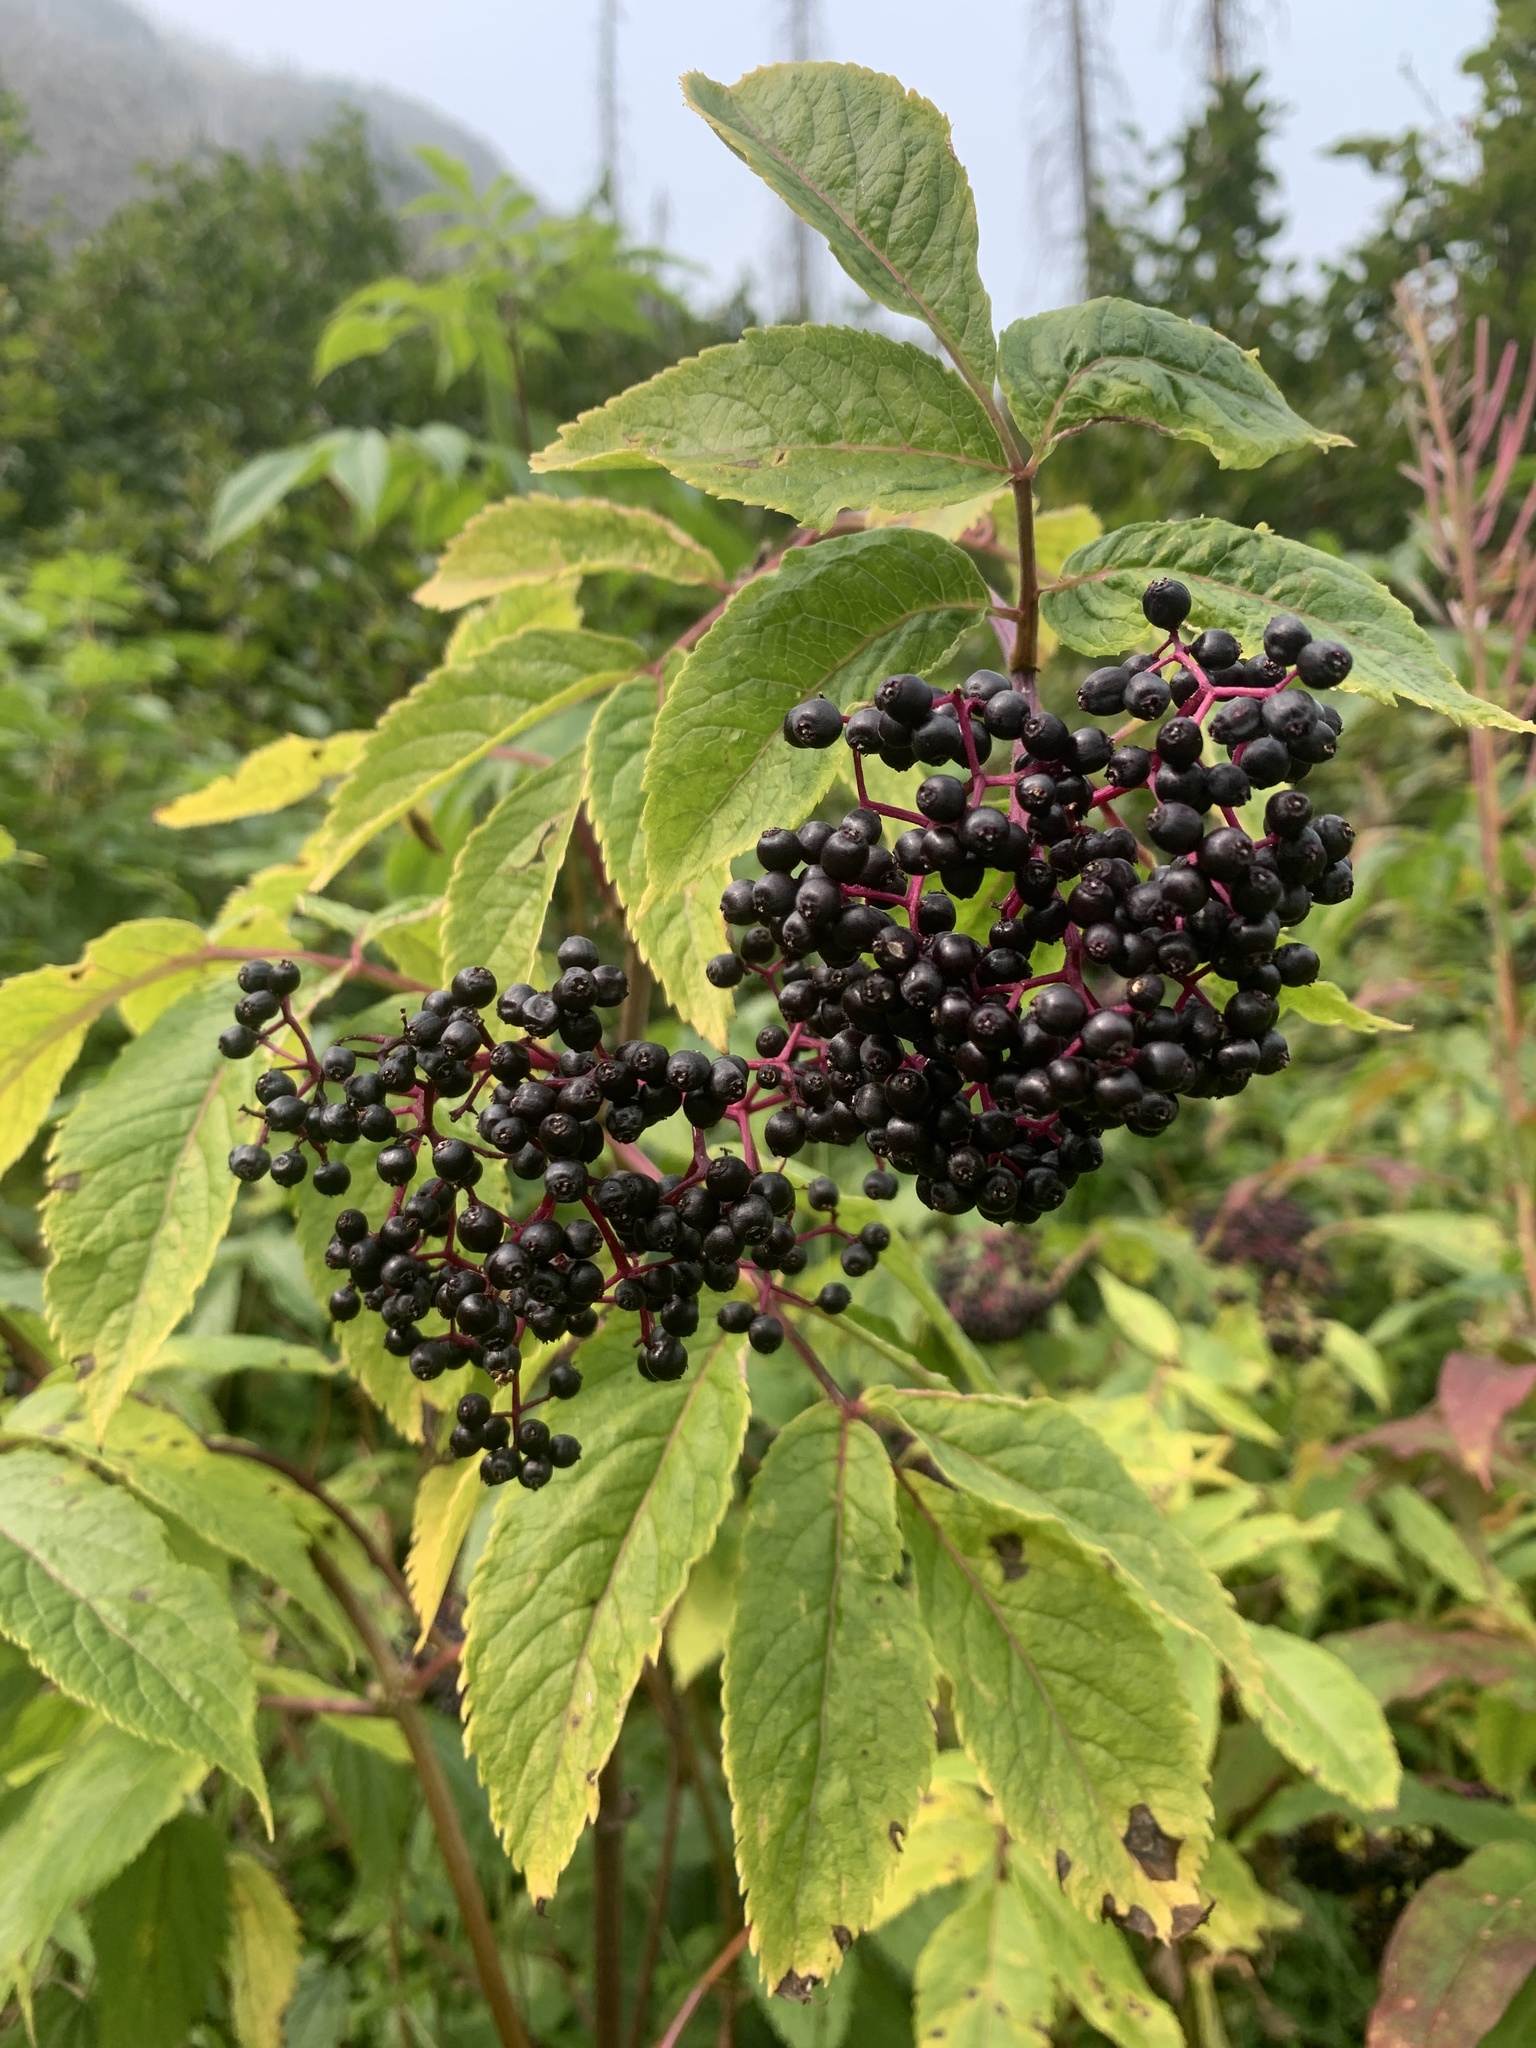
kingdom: Plantae
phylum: Tracheophyta
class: Magnoliopsida
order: Dipsacales
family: Viburnaceae
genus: Sambucus
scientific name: Sambucus racemosa
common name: Red-berried elder
